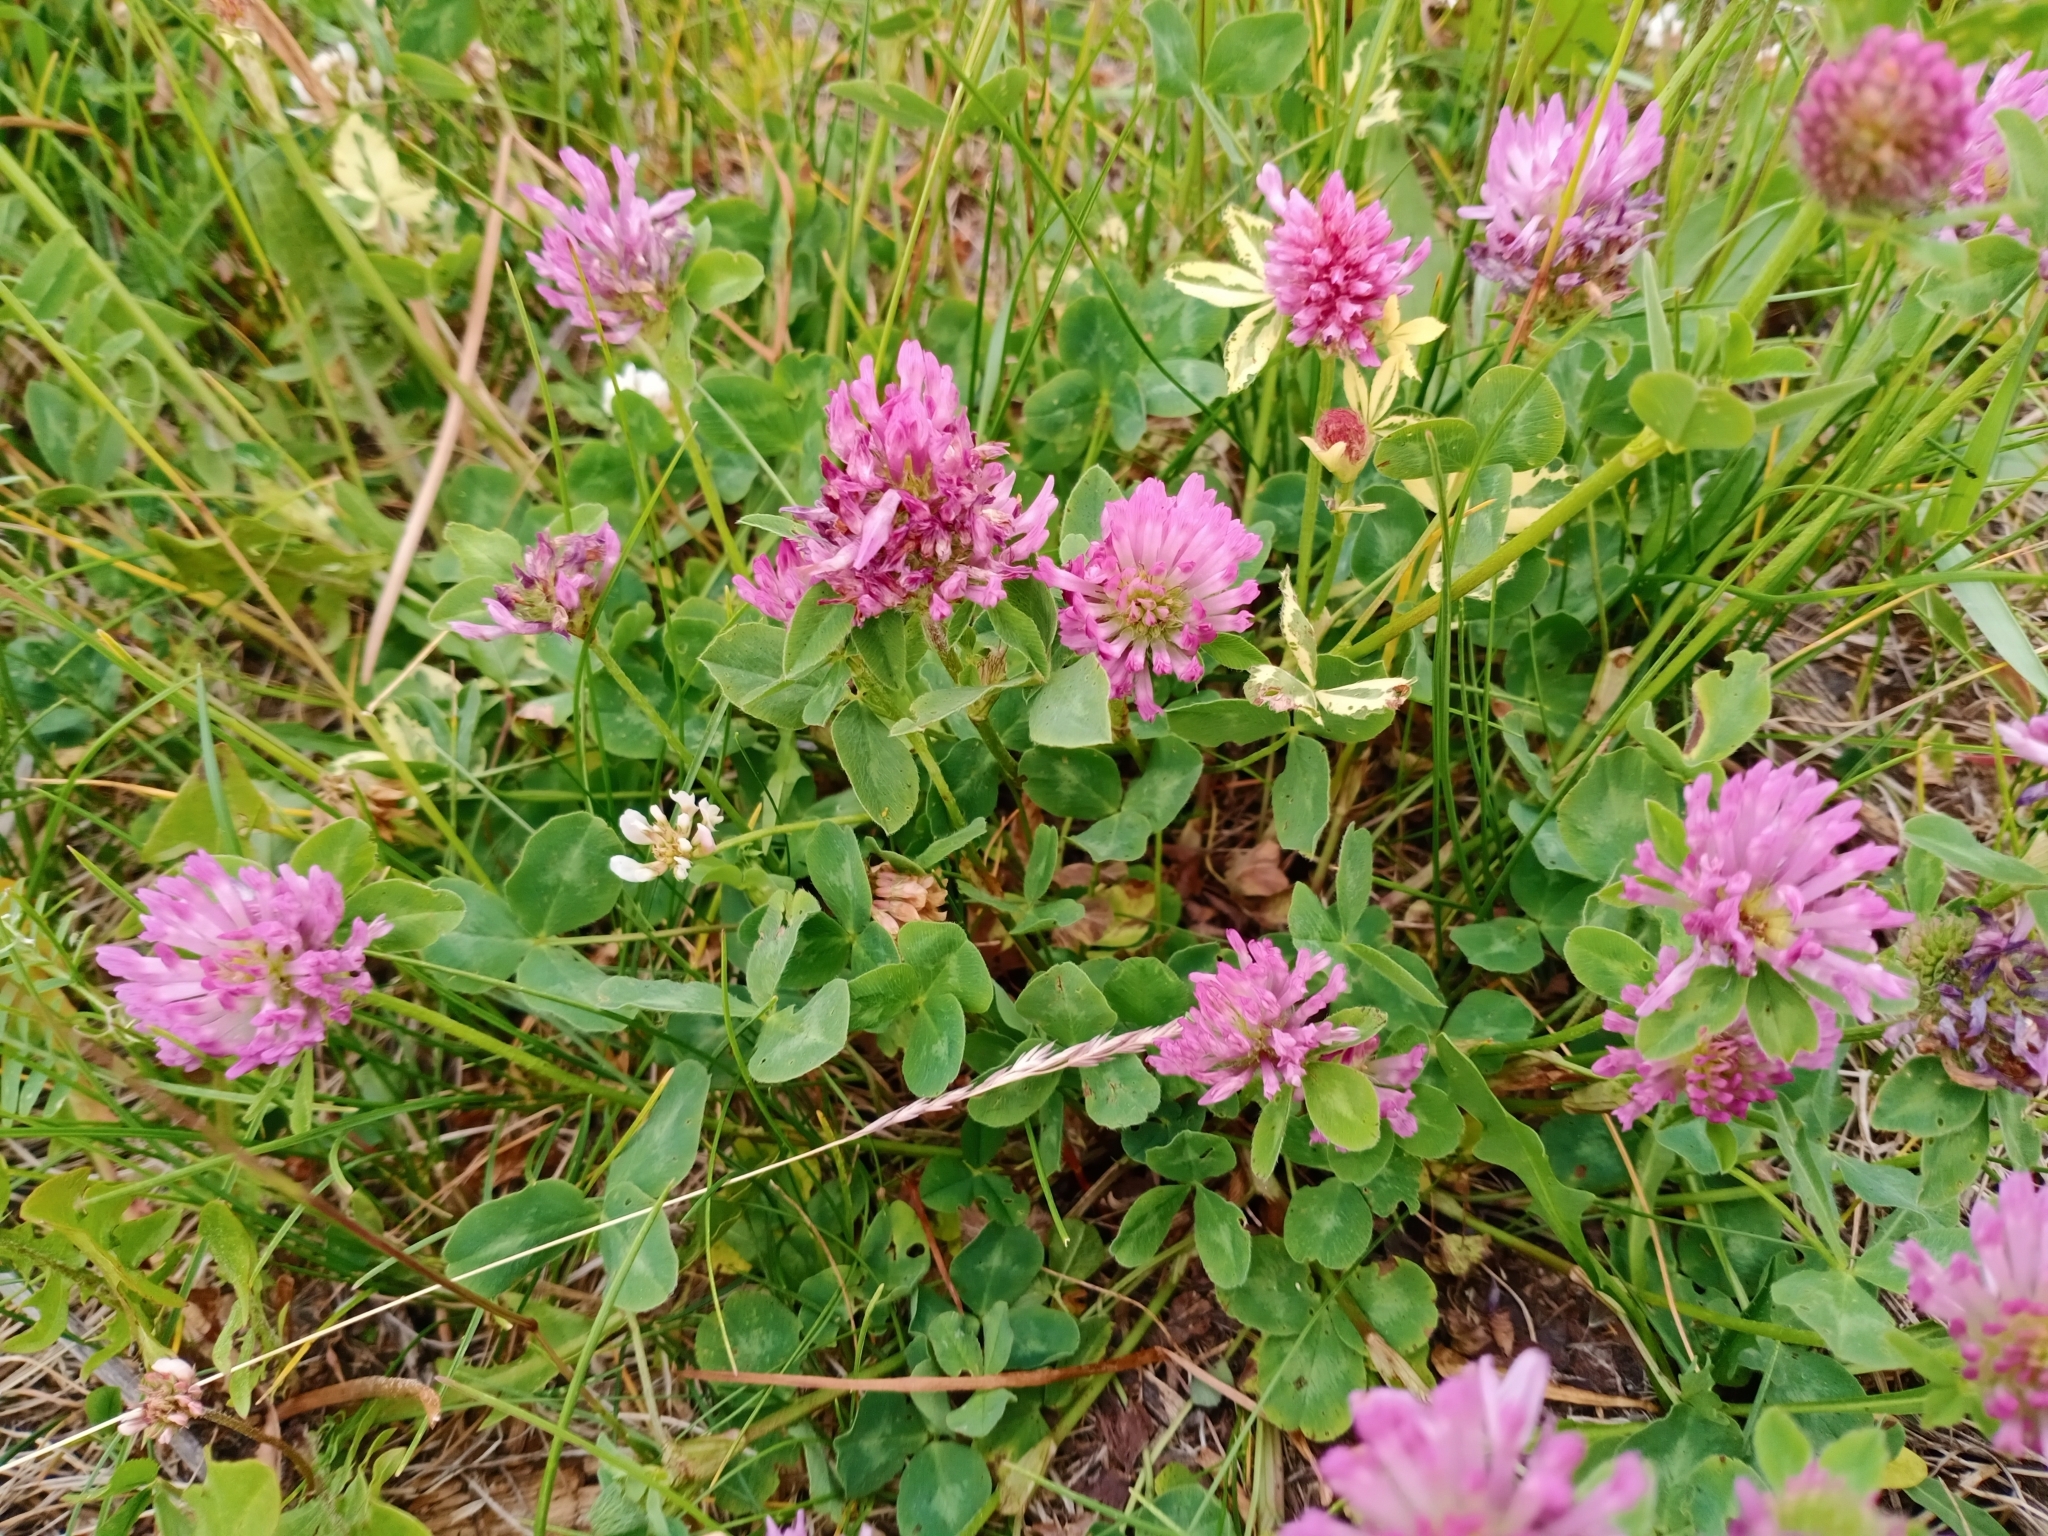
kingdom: Plantae
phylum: Tracheophyta
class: Magnoliopsida
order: Fabales
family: Fabaceae
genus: Trifolium
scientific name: Trifolium pratense
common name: Red clover
